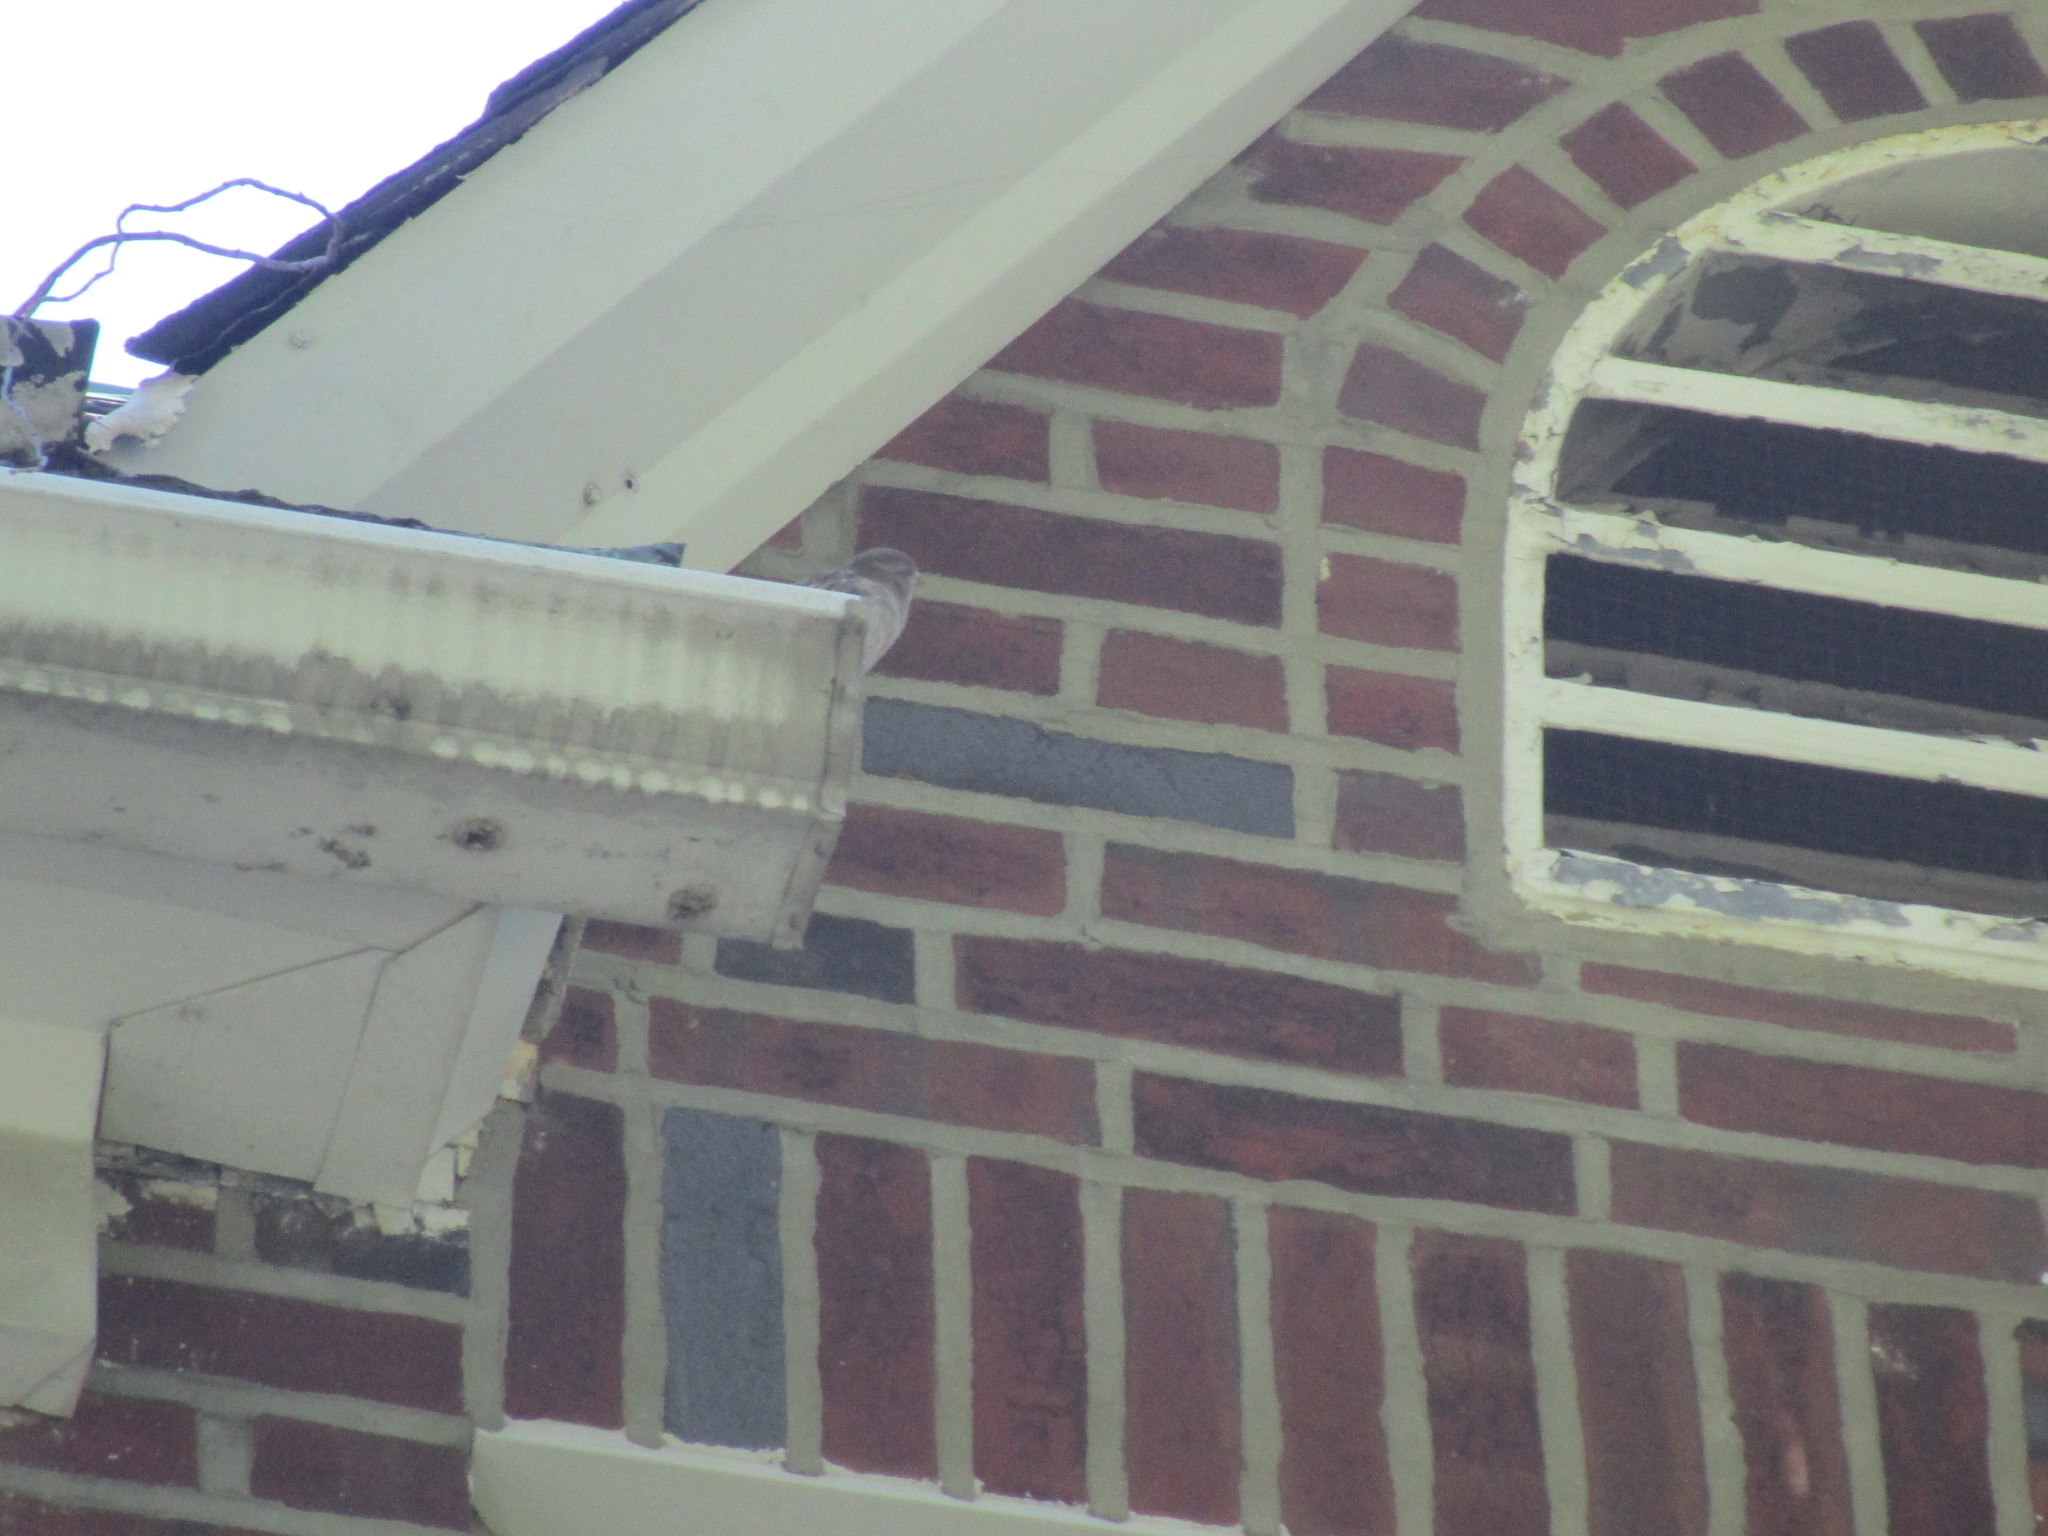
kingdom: Animalia
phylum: Chordata
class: Aves
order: Passeriformes
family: Passeridae
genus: Passer
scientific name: Passer domesticus
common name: House sparrow
